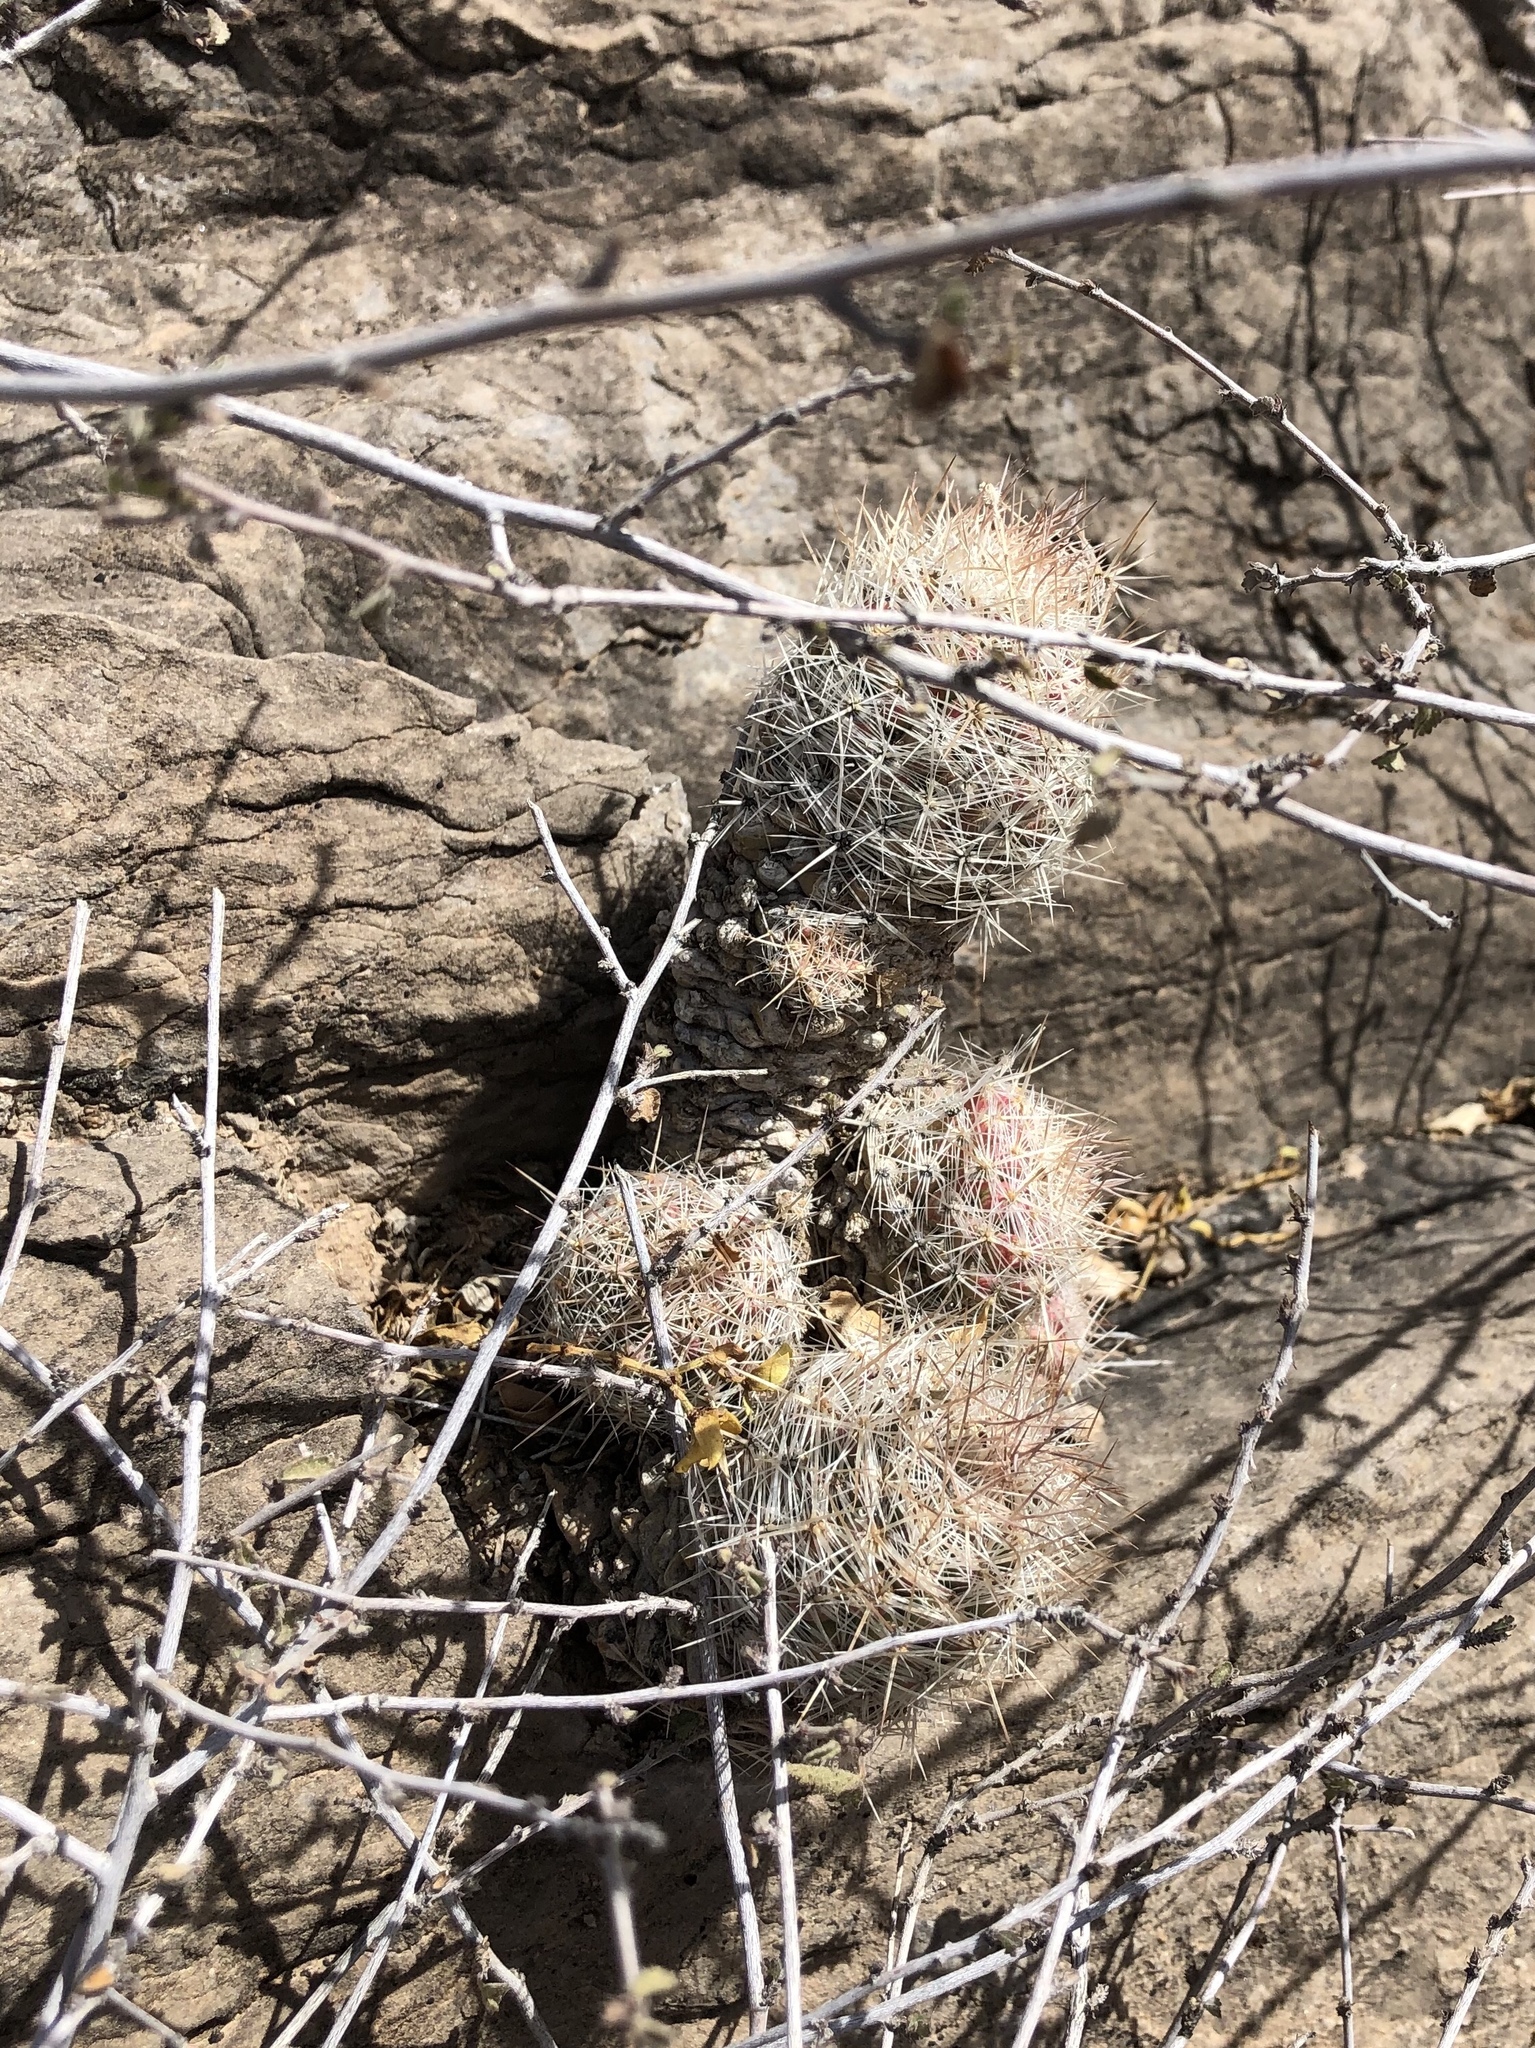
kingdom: Plantae
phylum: Tracheophyta
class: Magnoliopsida
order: Caryophyllales
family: Cactaceae
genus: Pelecyphora
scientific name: Pelecyphora tuberculosa
